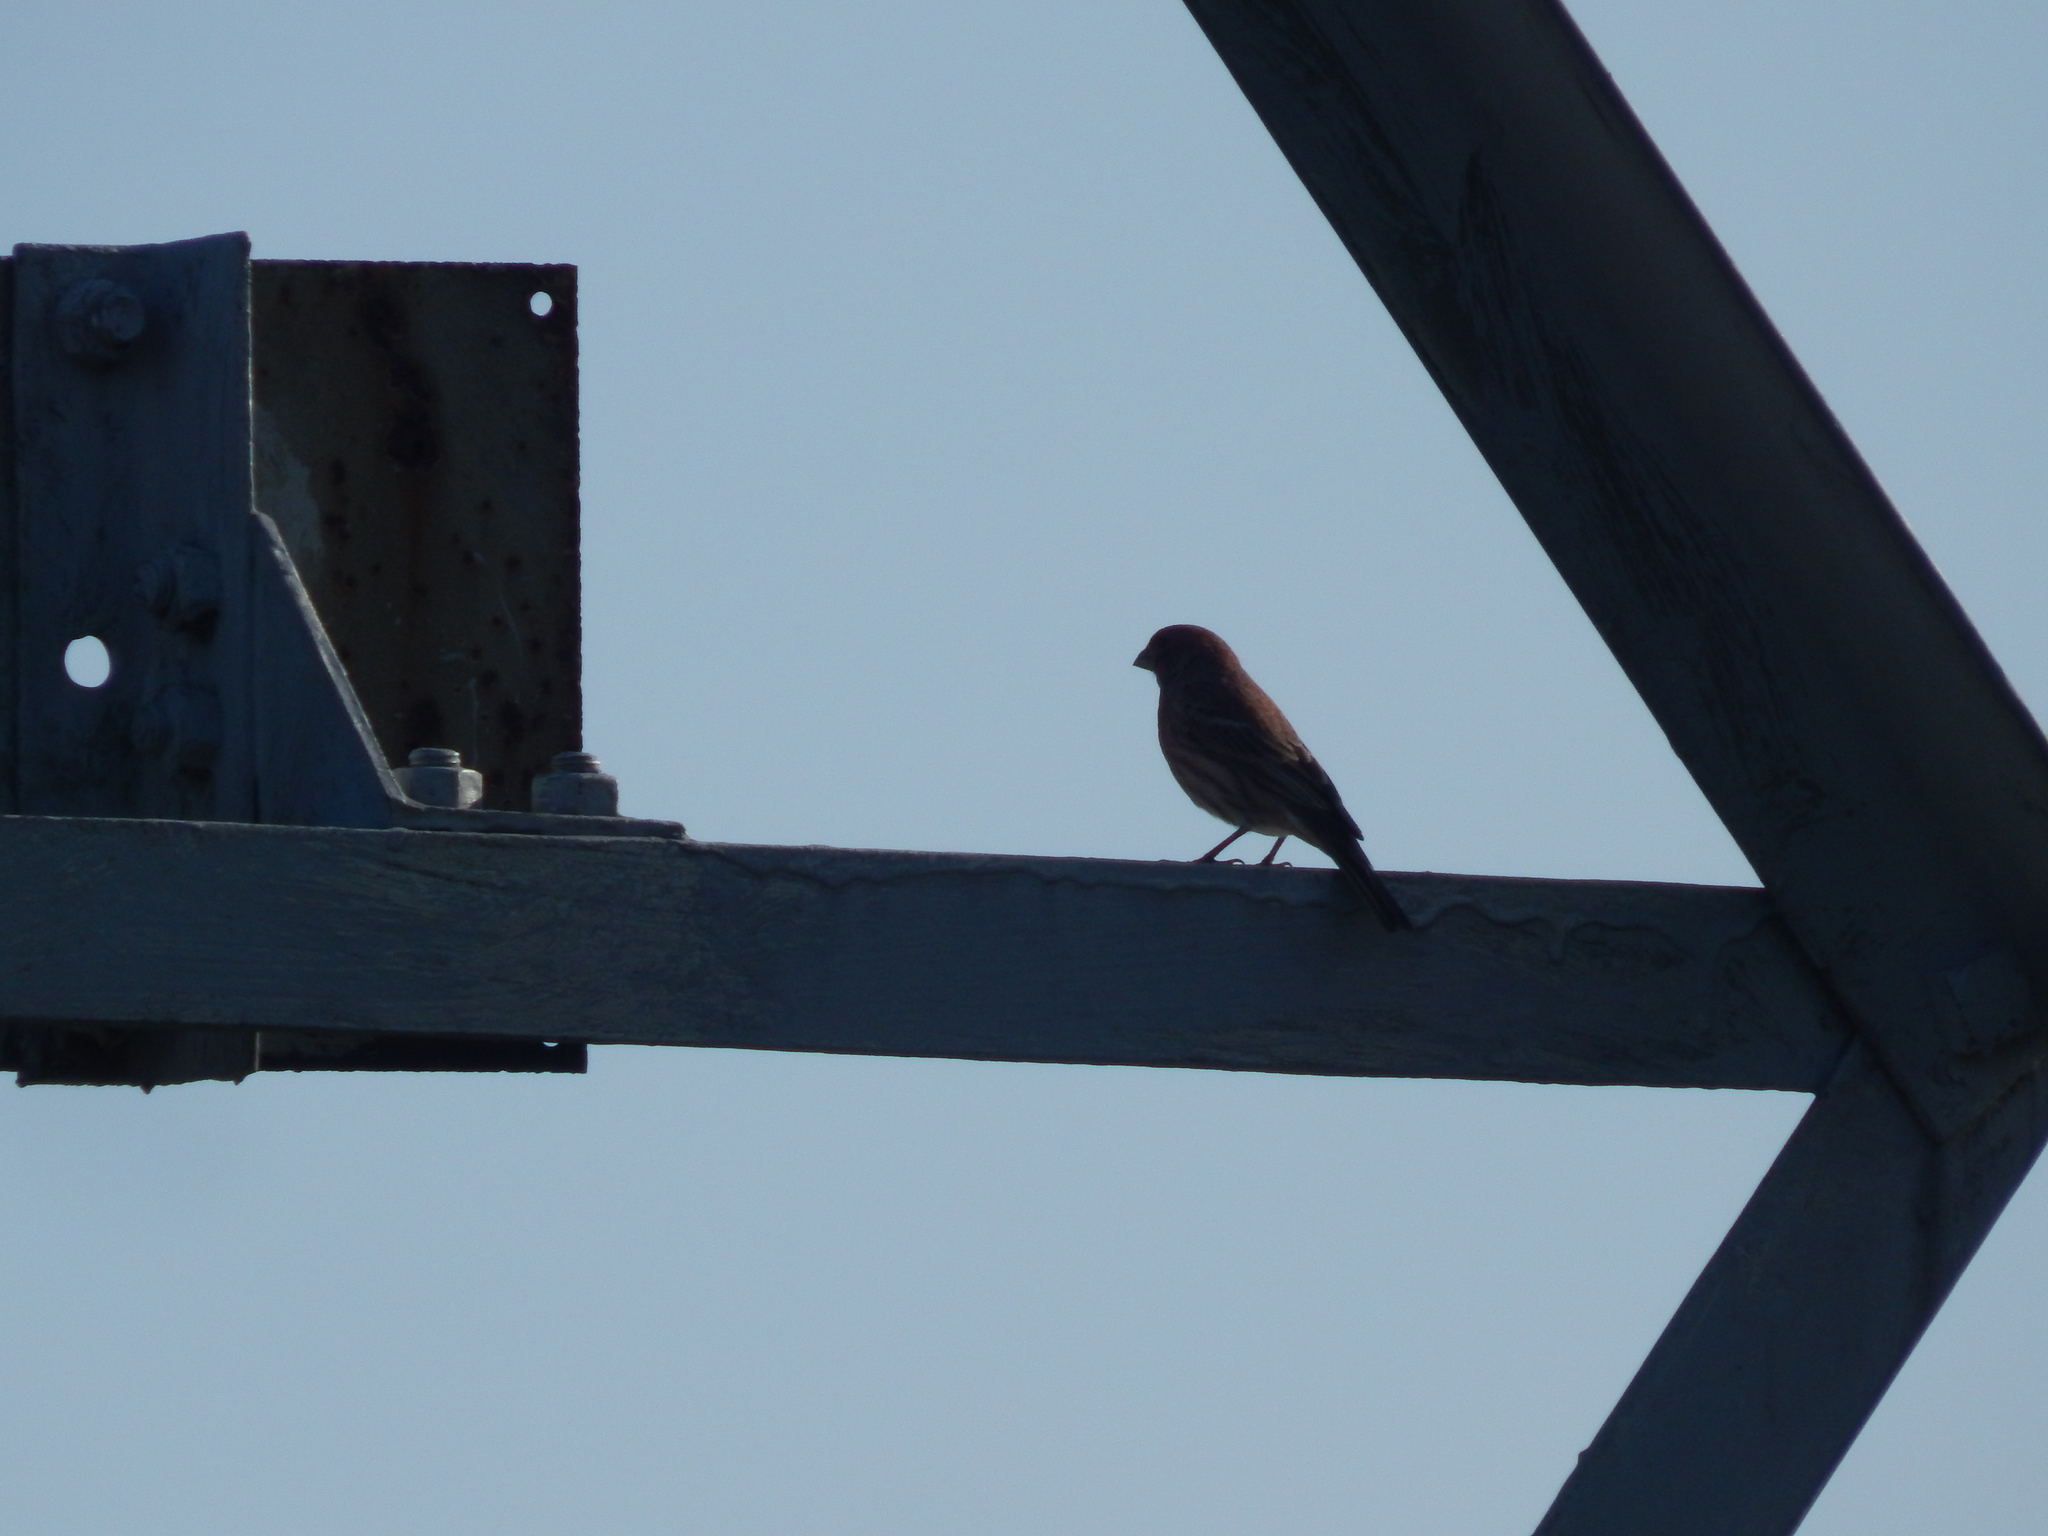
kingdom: Animalia
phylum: Chordata
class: Aves
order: Passeriformes
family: Fringillidae
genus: Haemorhous
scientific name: Haemorhous mexicanus
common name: House finch
